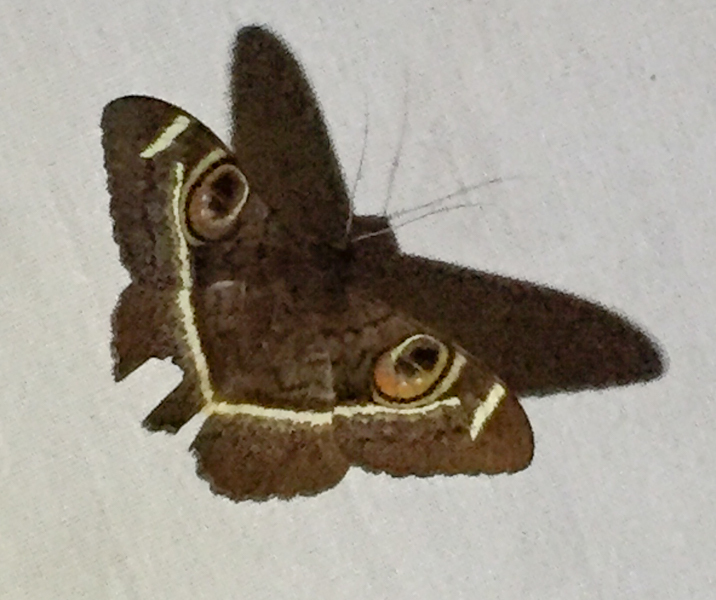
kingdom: Animalia
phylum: Arthropoda
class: Insecta
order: Lepidoptera
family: Erebidae
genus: Cyligramma
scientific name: Cyligramma latona
